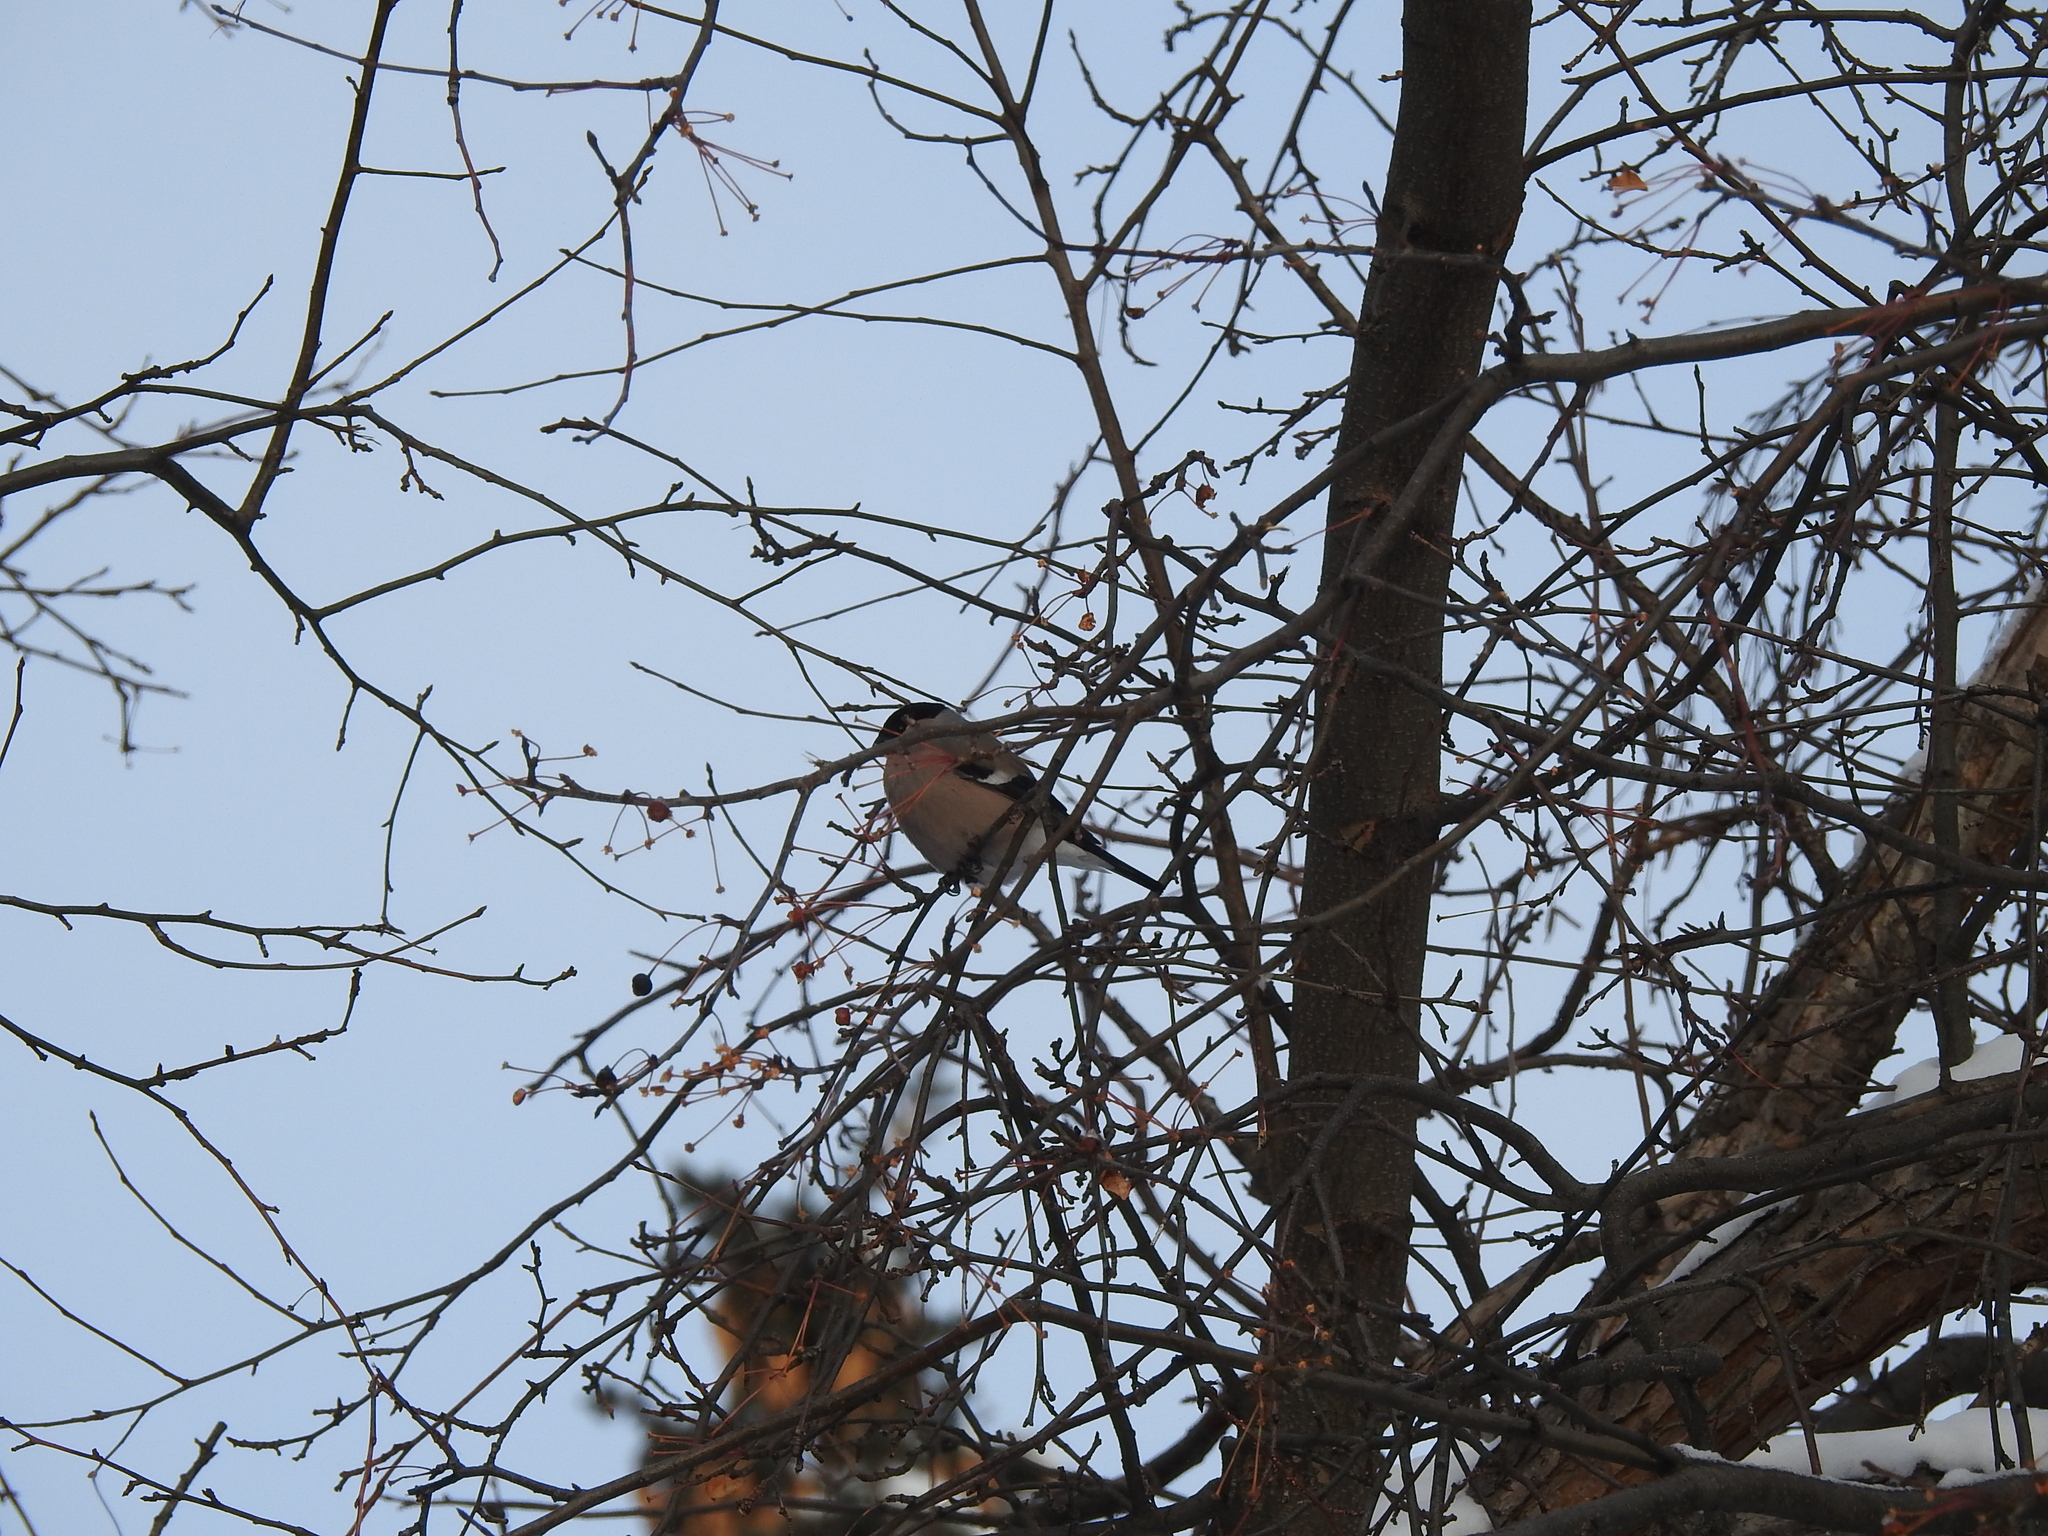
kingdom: Animalia
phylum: Chordata
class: Aves
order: Passeriformes
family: Fringillidae
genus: Pyrrhula
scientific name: Pyrrhula pyrrhula
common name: Eurasian bullfinch
